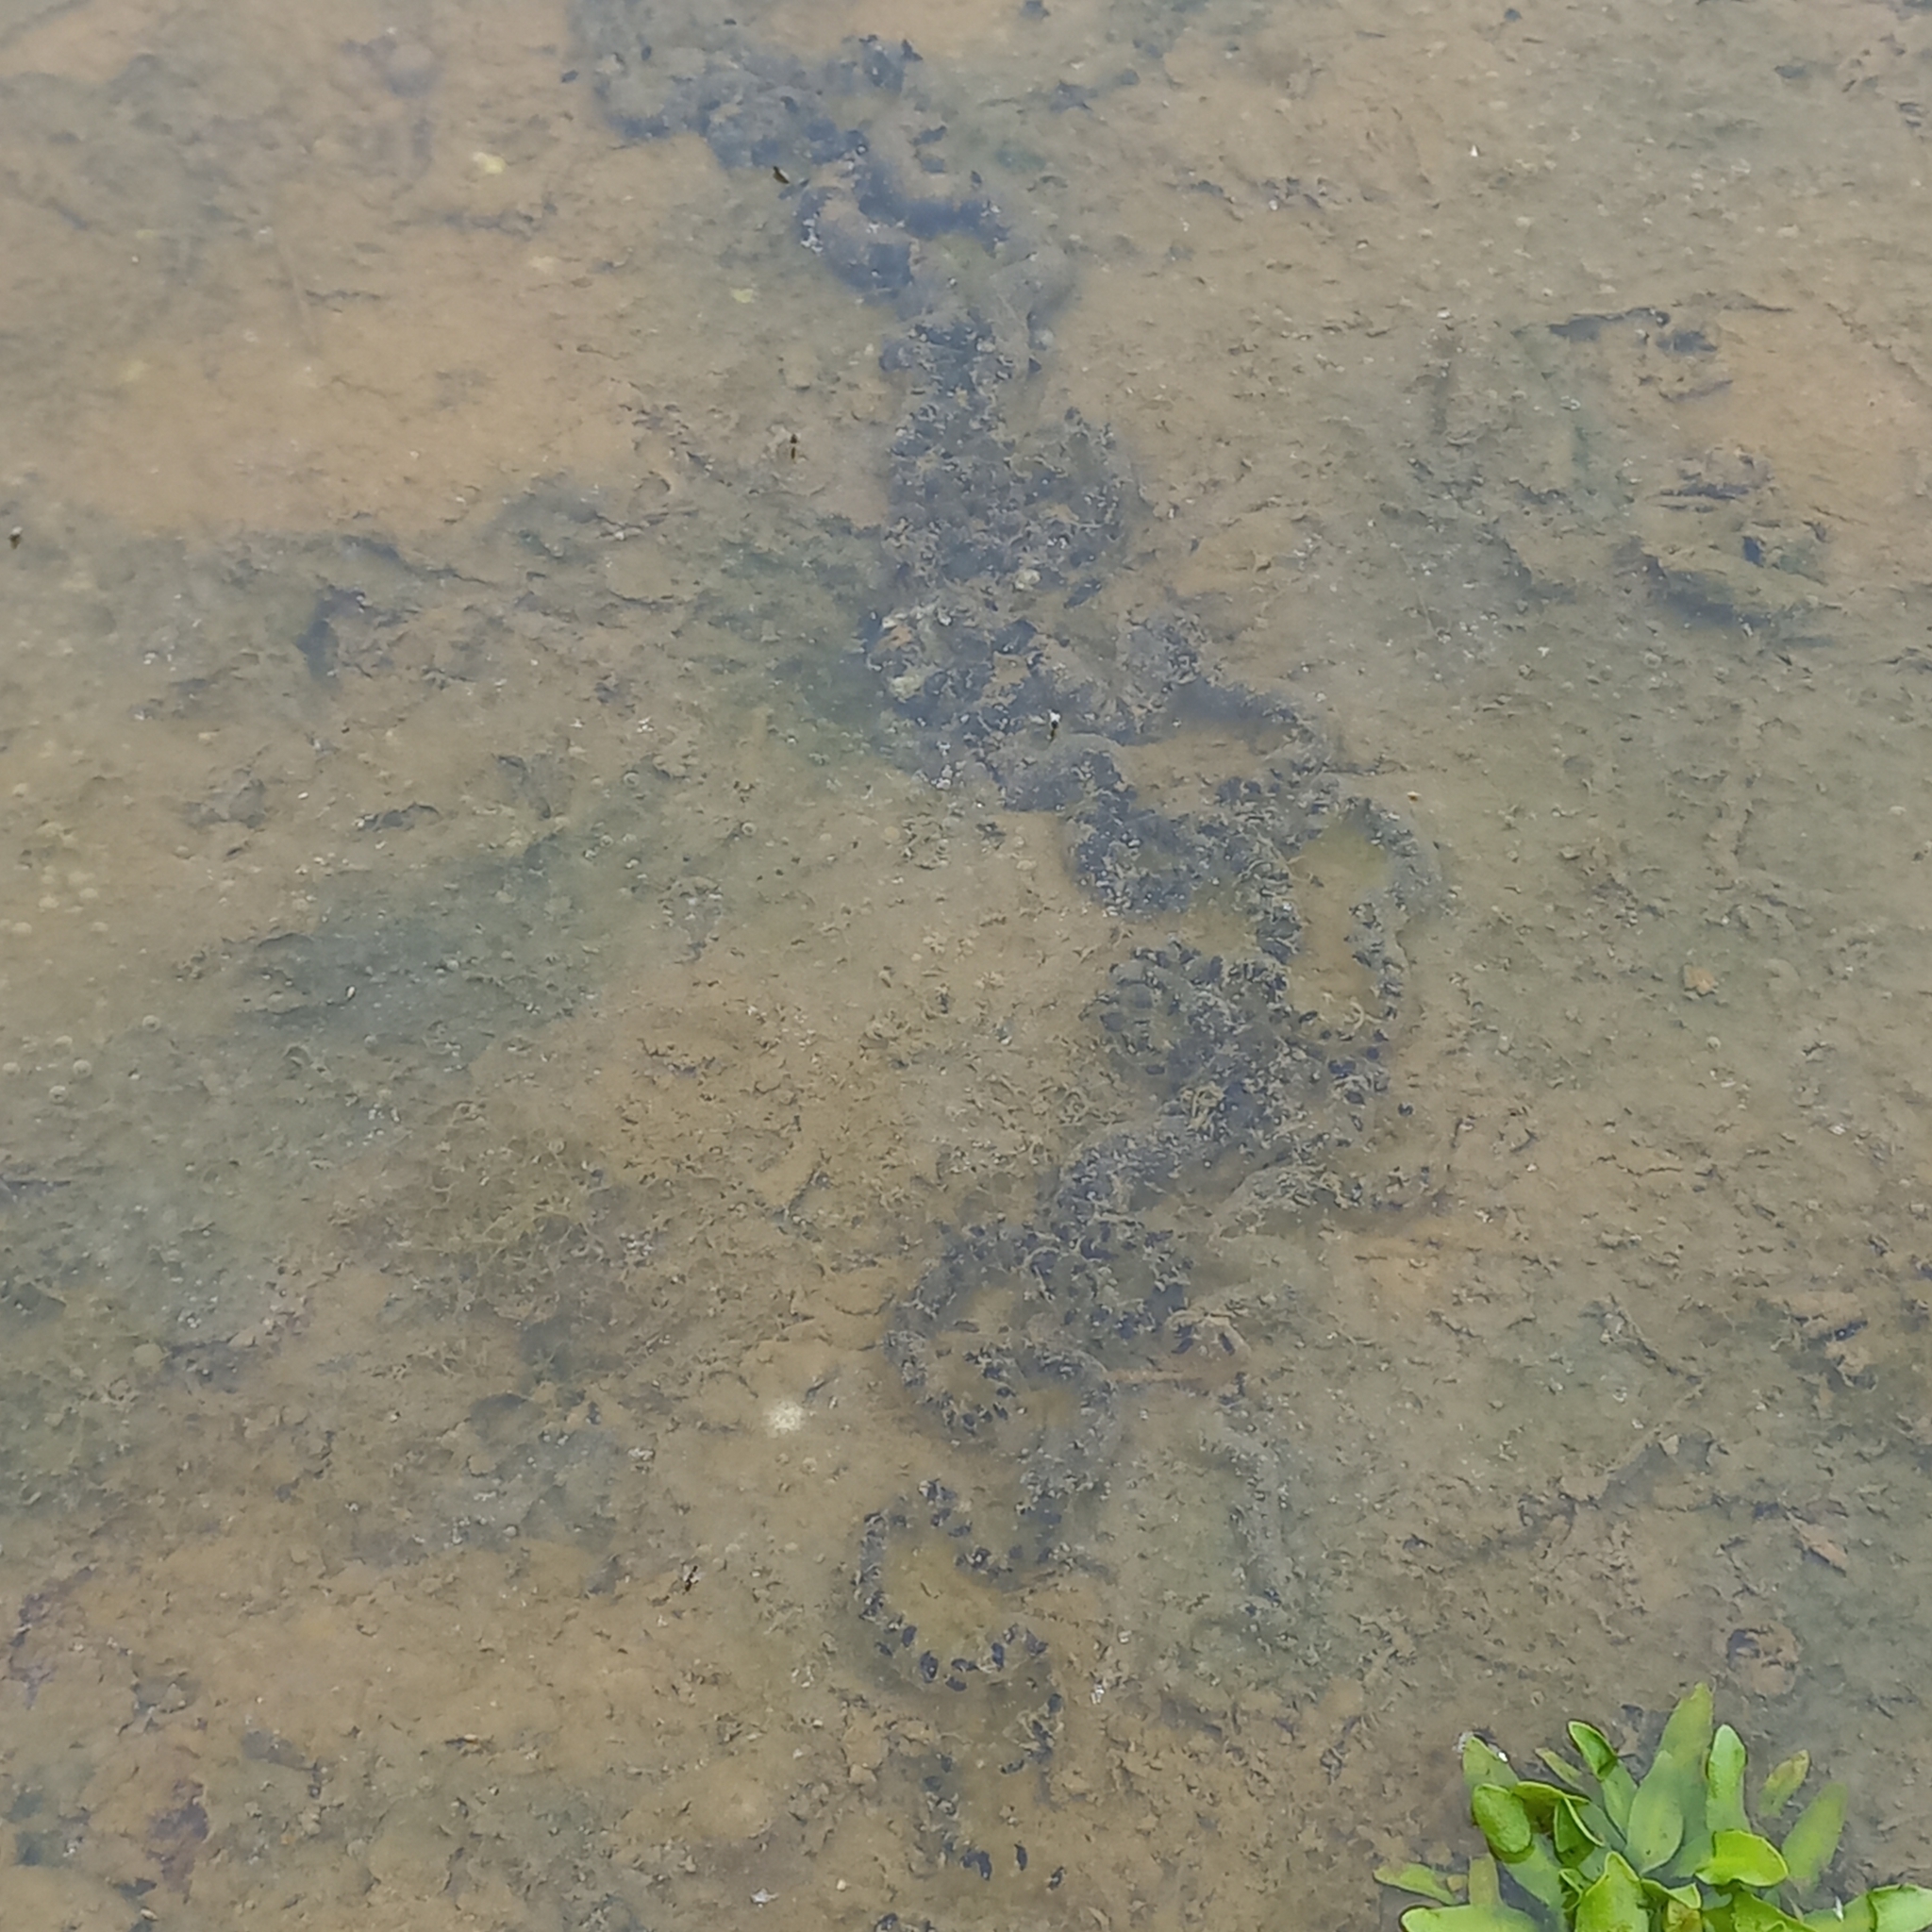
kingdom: Animalia
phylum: Chordata
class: Amphibia
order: Anura
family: Bufonidae
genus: Epidalea
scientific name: Epidalea calamita
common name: Natterjack toad
